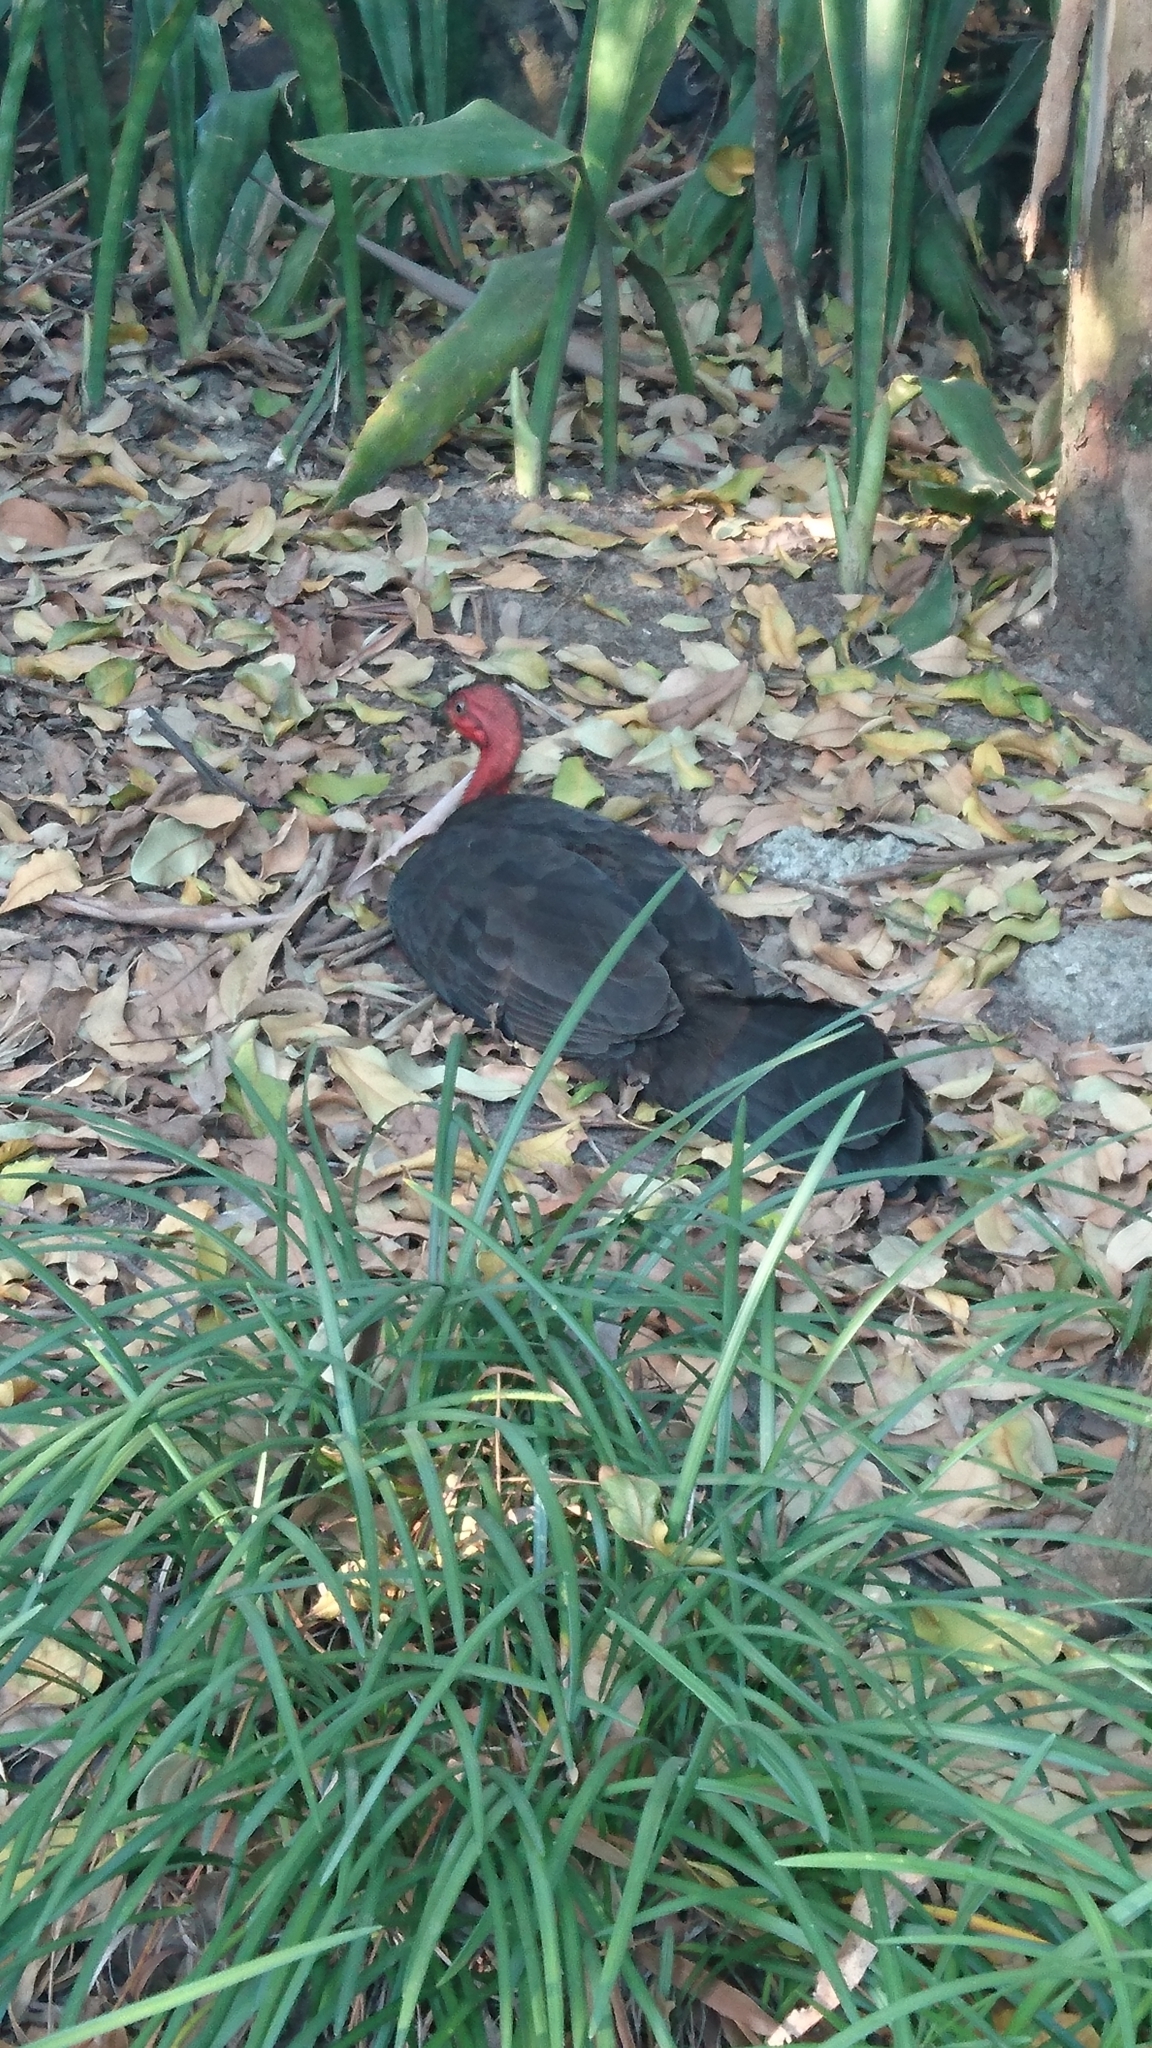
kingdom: Animalia
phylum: Chordata
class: Aves
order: Galliformes
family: Megapodiidae
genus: Alectura
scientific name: Alectura lathami
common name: Australian brushturkey
